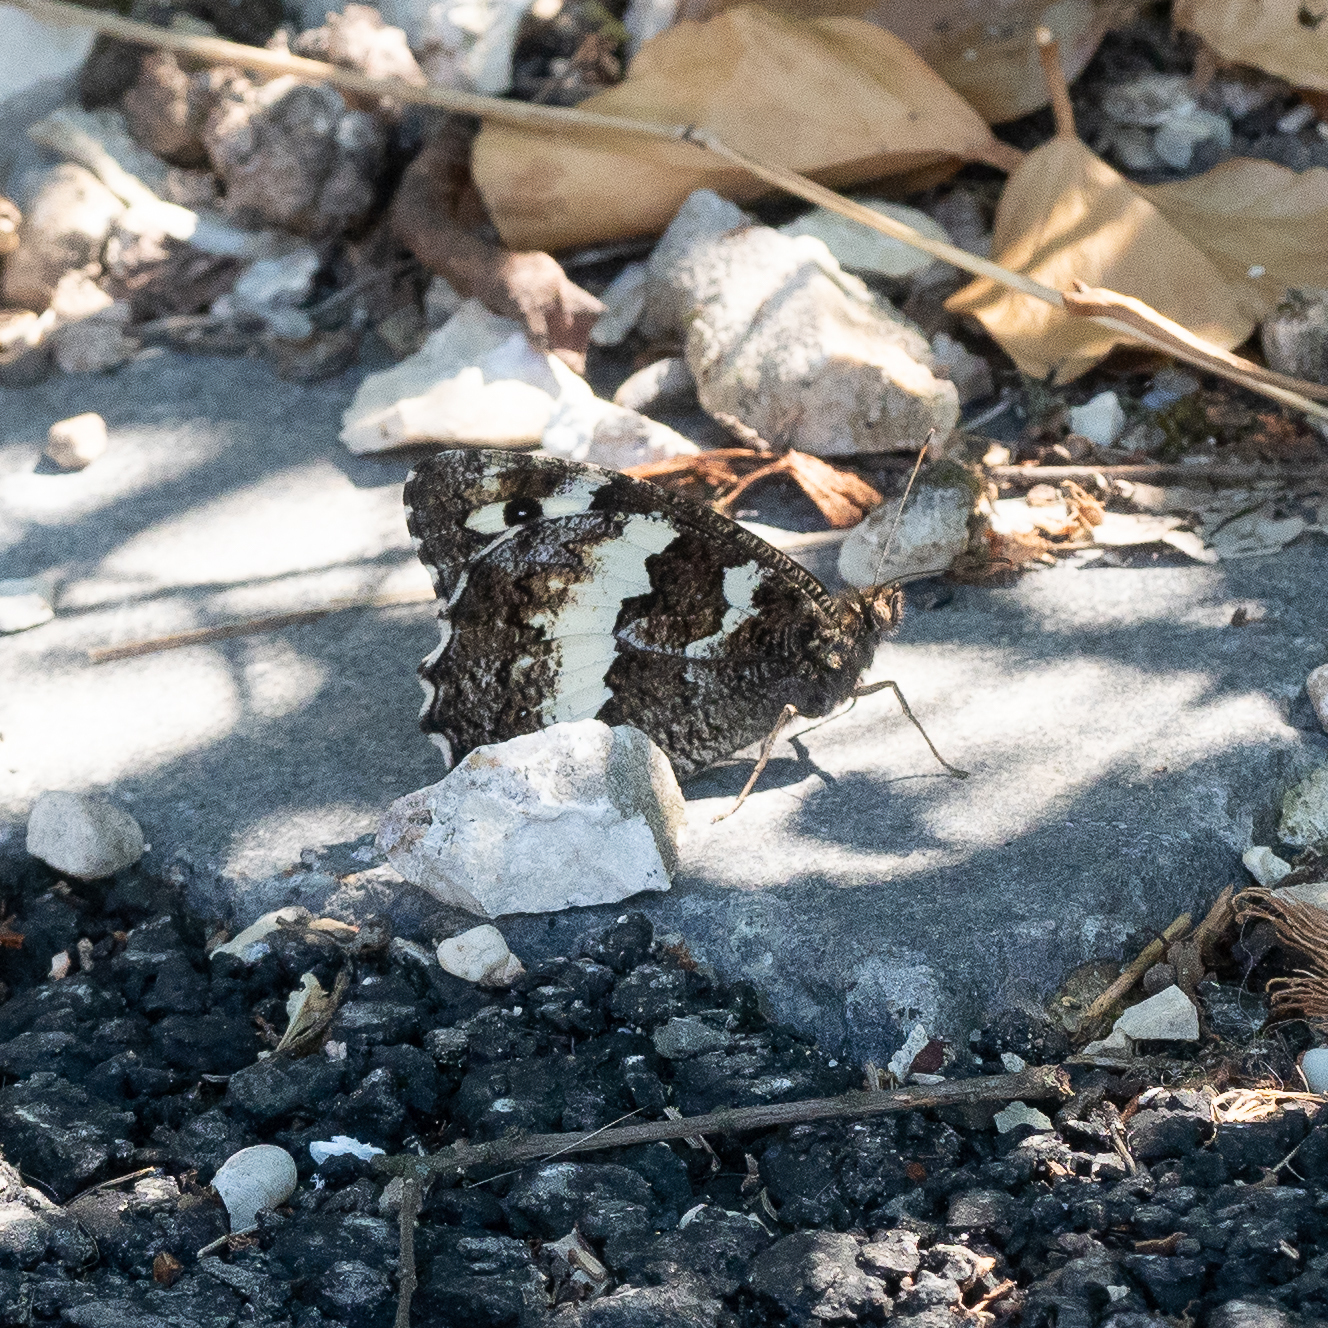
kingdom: Animalia
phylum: Arthropoda
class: Insecta
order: Lepidoptera
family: Lycaenidae
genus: Loweia
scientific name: Loweia tityrus
